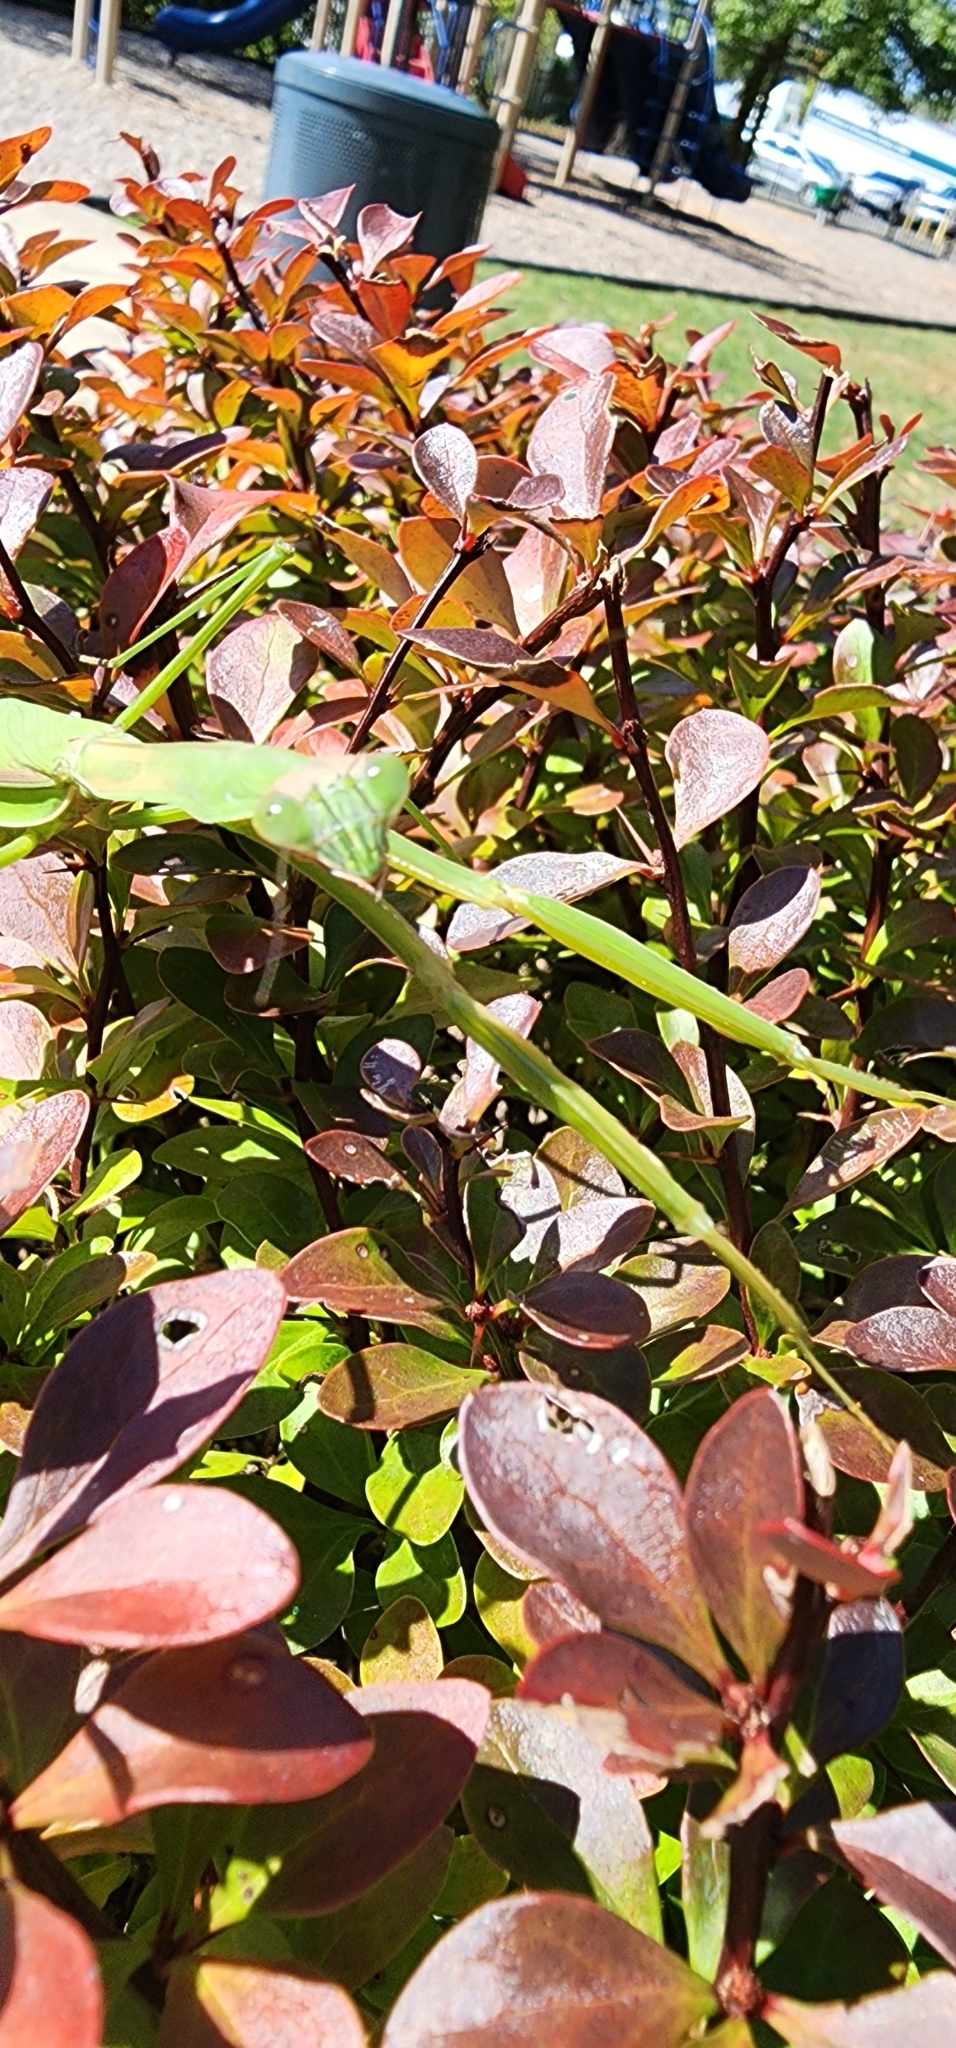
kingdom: Animalia
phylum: Arthropoda
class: Insecta
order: Mantodea
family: Mantidae
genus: Tenodera
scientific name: Tenodera sinensis
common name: Chinese mantis
